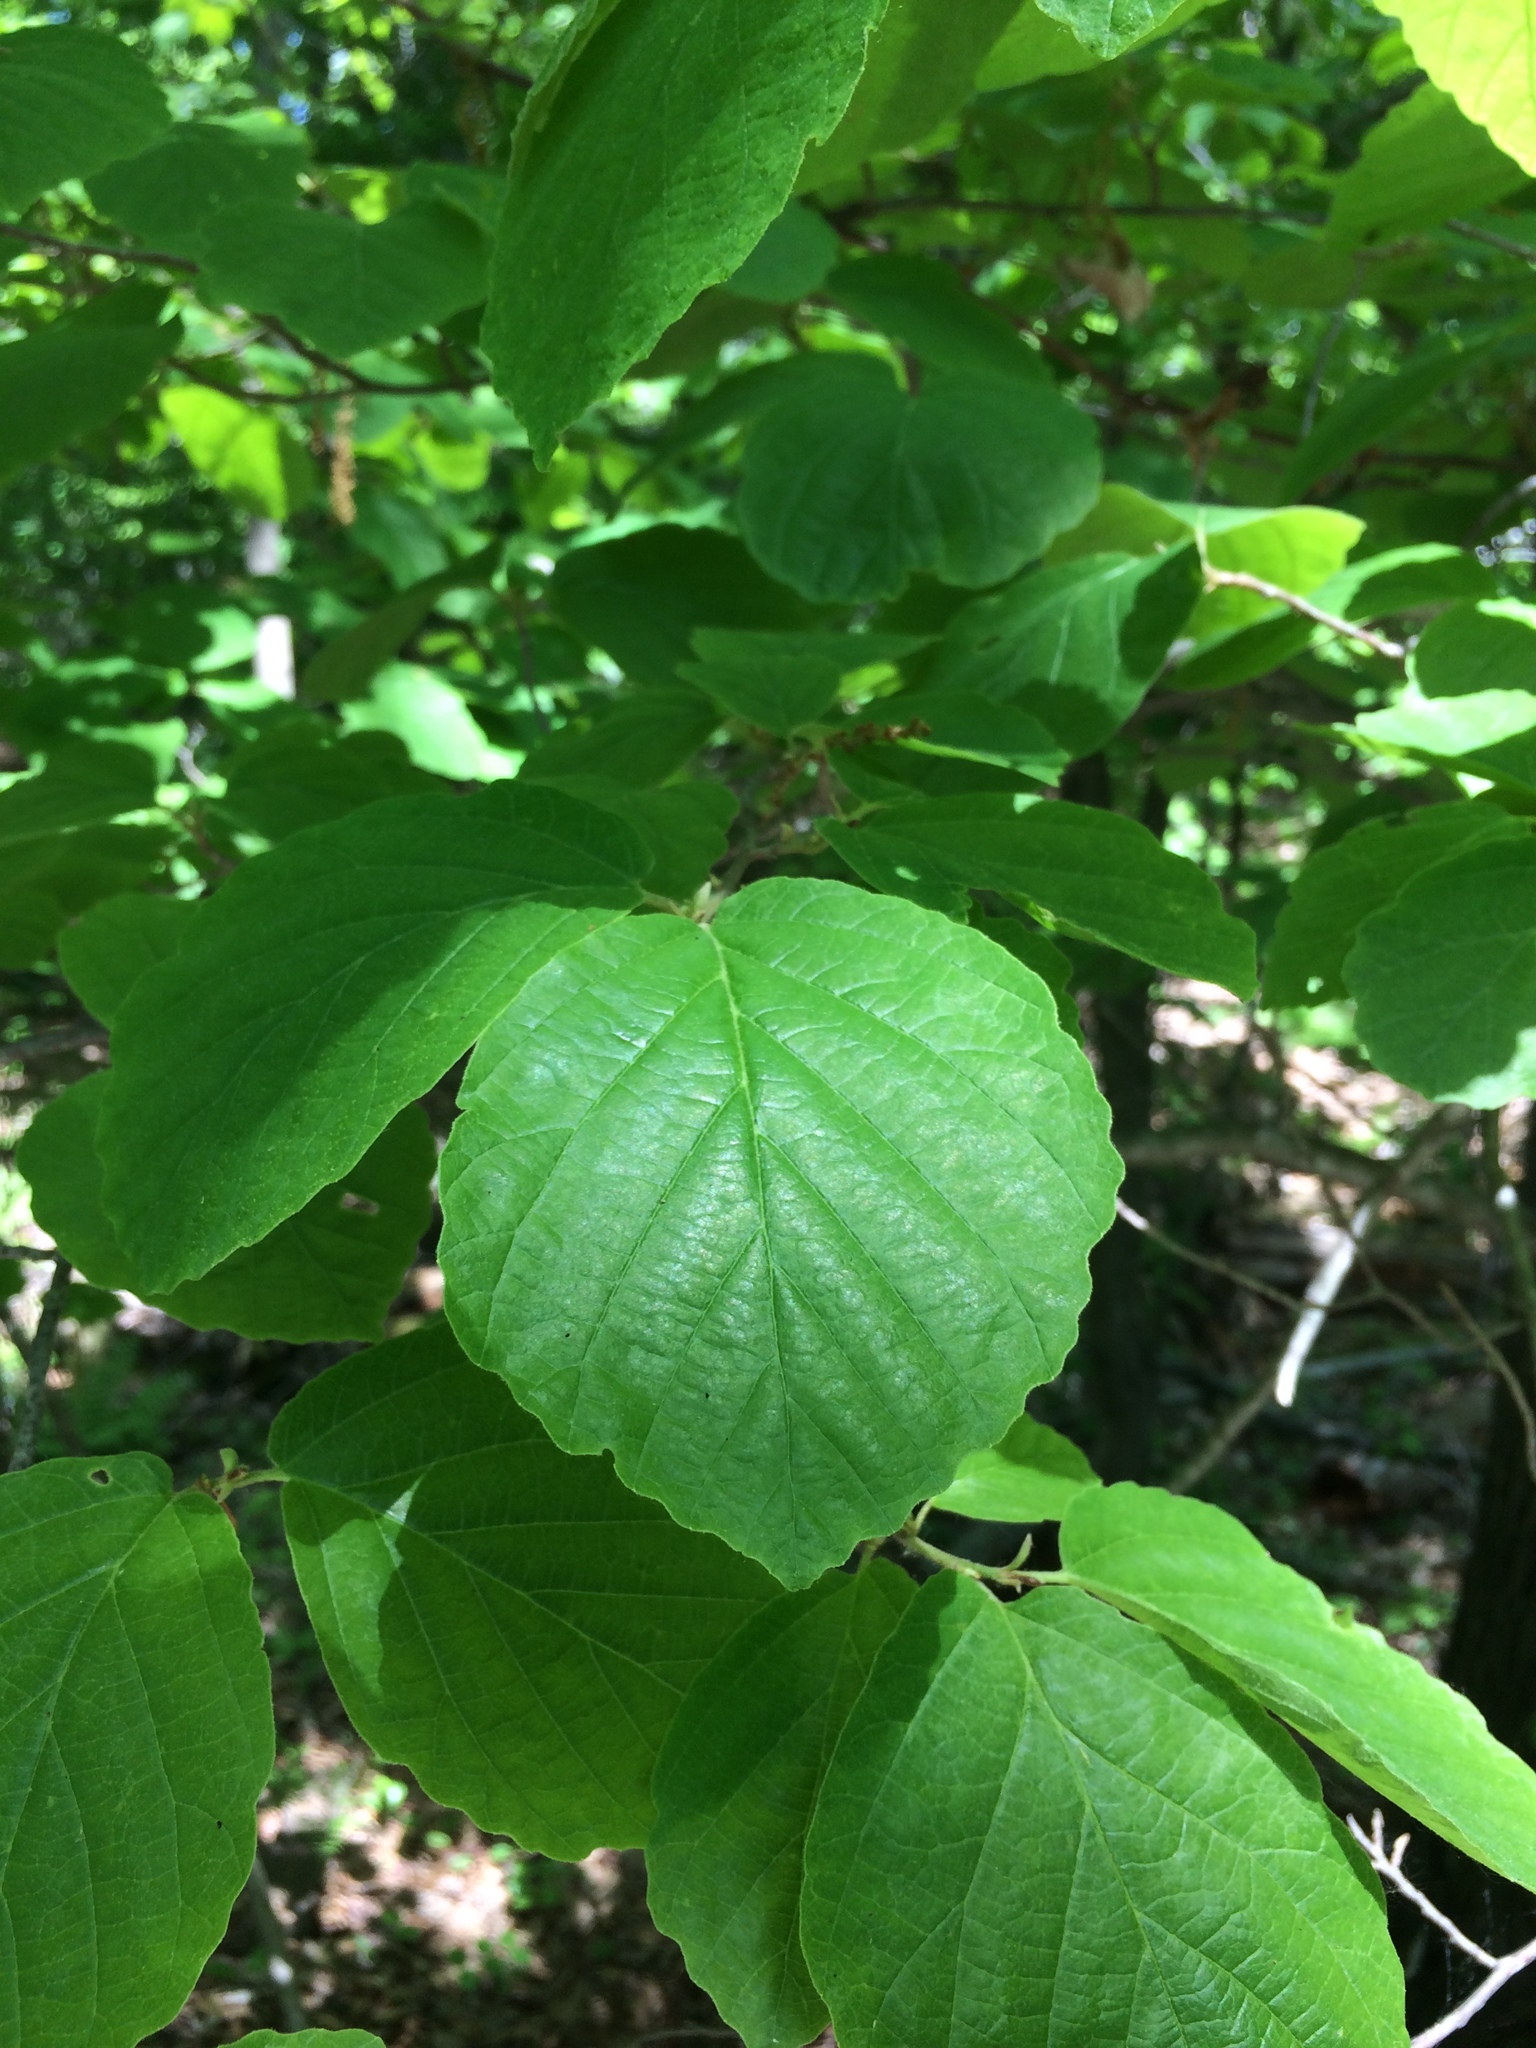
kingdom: Plantae
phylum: Tracheophyta
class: Magnoliopsida
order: Saxifragales
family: Hamamelidaceae
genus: Hamamelis
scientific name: Hamamelis virginiana
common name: Witch-hazel
